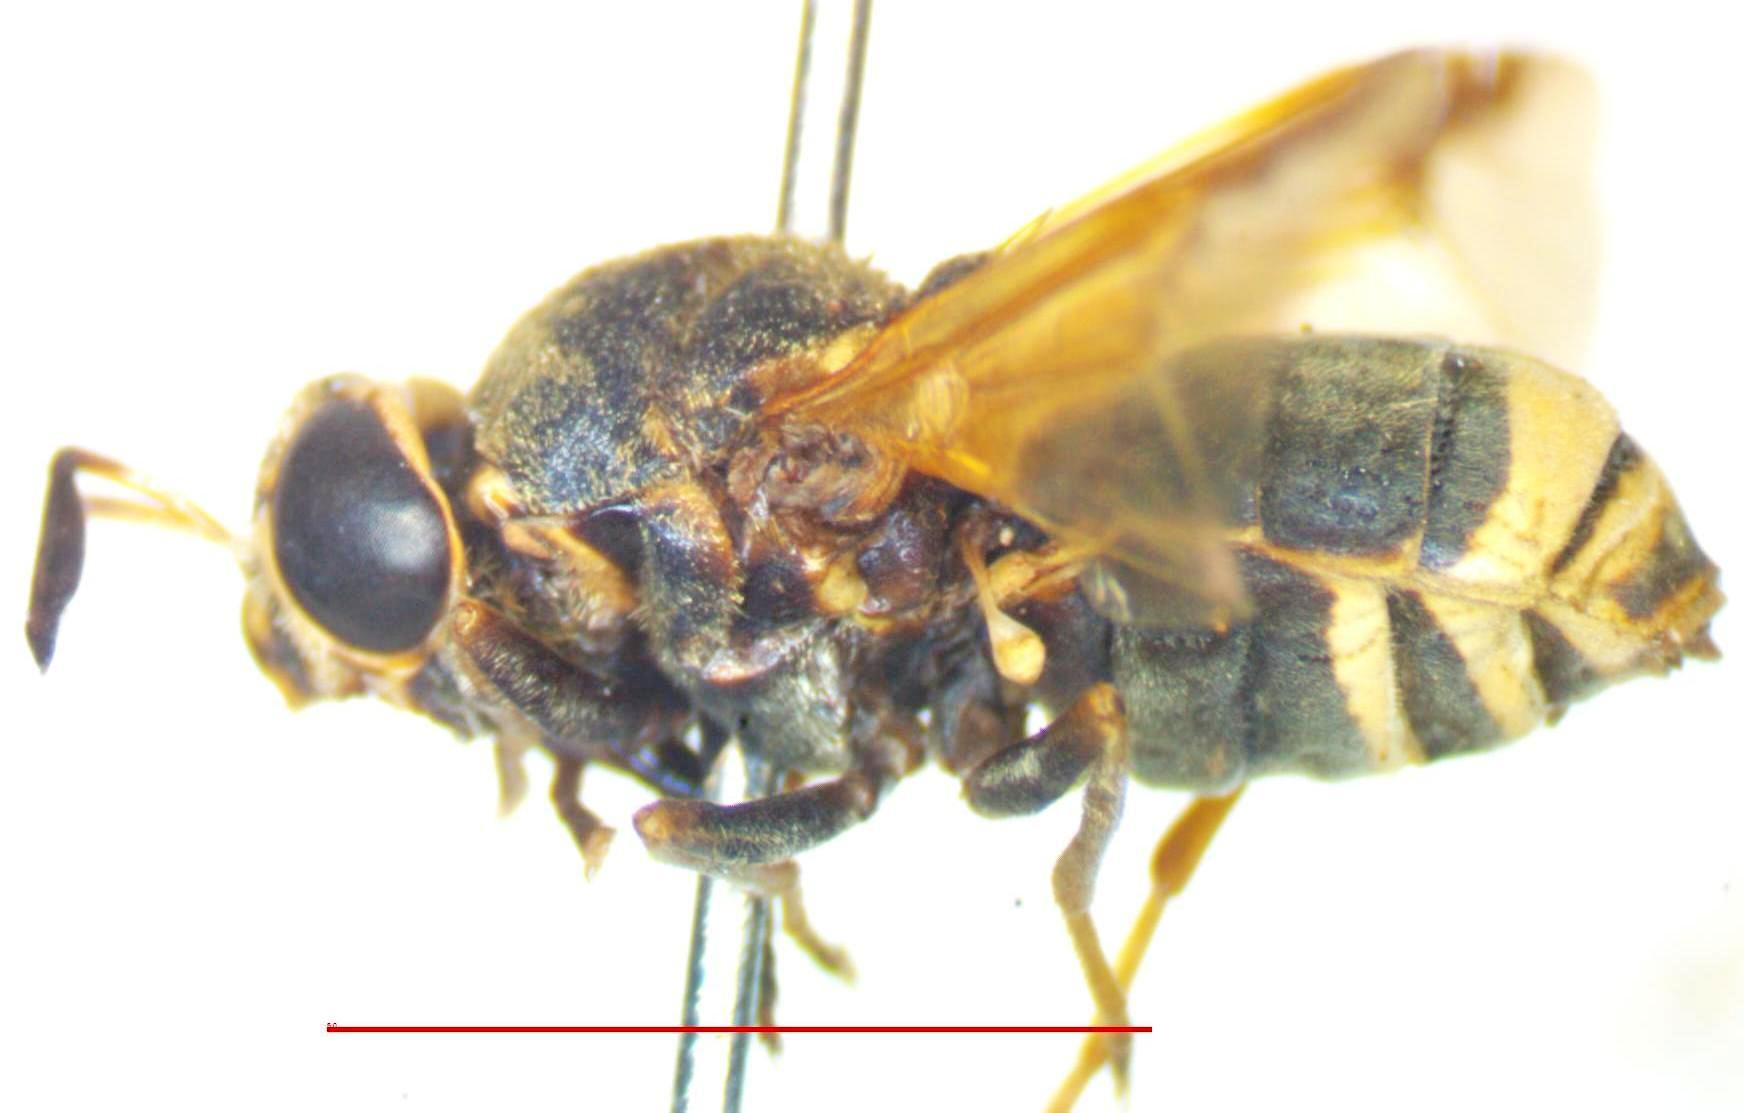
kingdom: Animalia
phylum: Arthropoda
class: Insecta
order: Diptera
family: Stratiomyidae
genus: Hoplitimyia
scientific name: Hoplitimyia mutabilis
